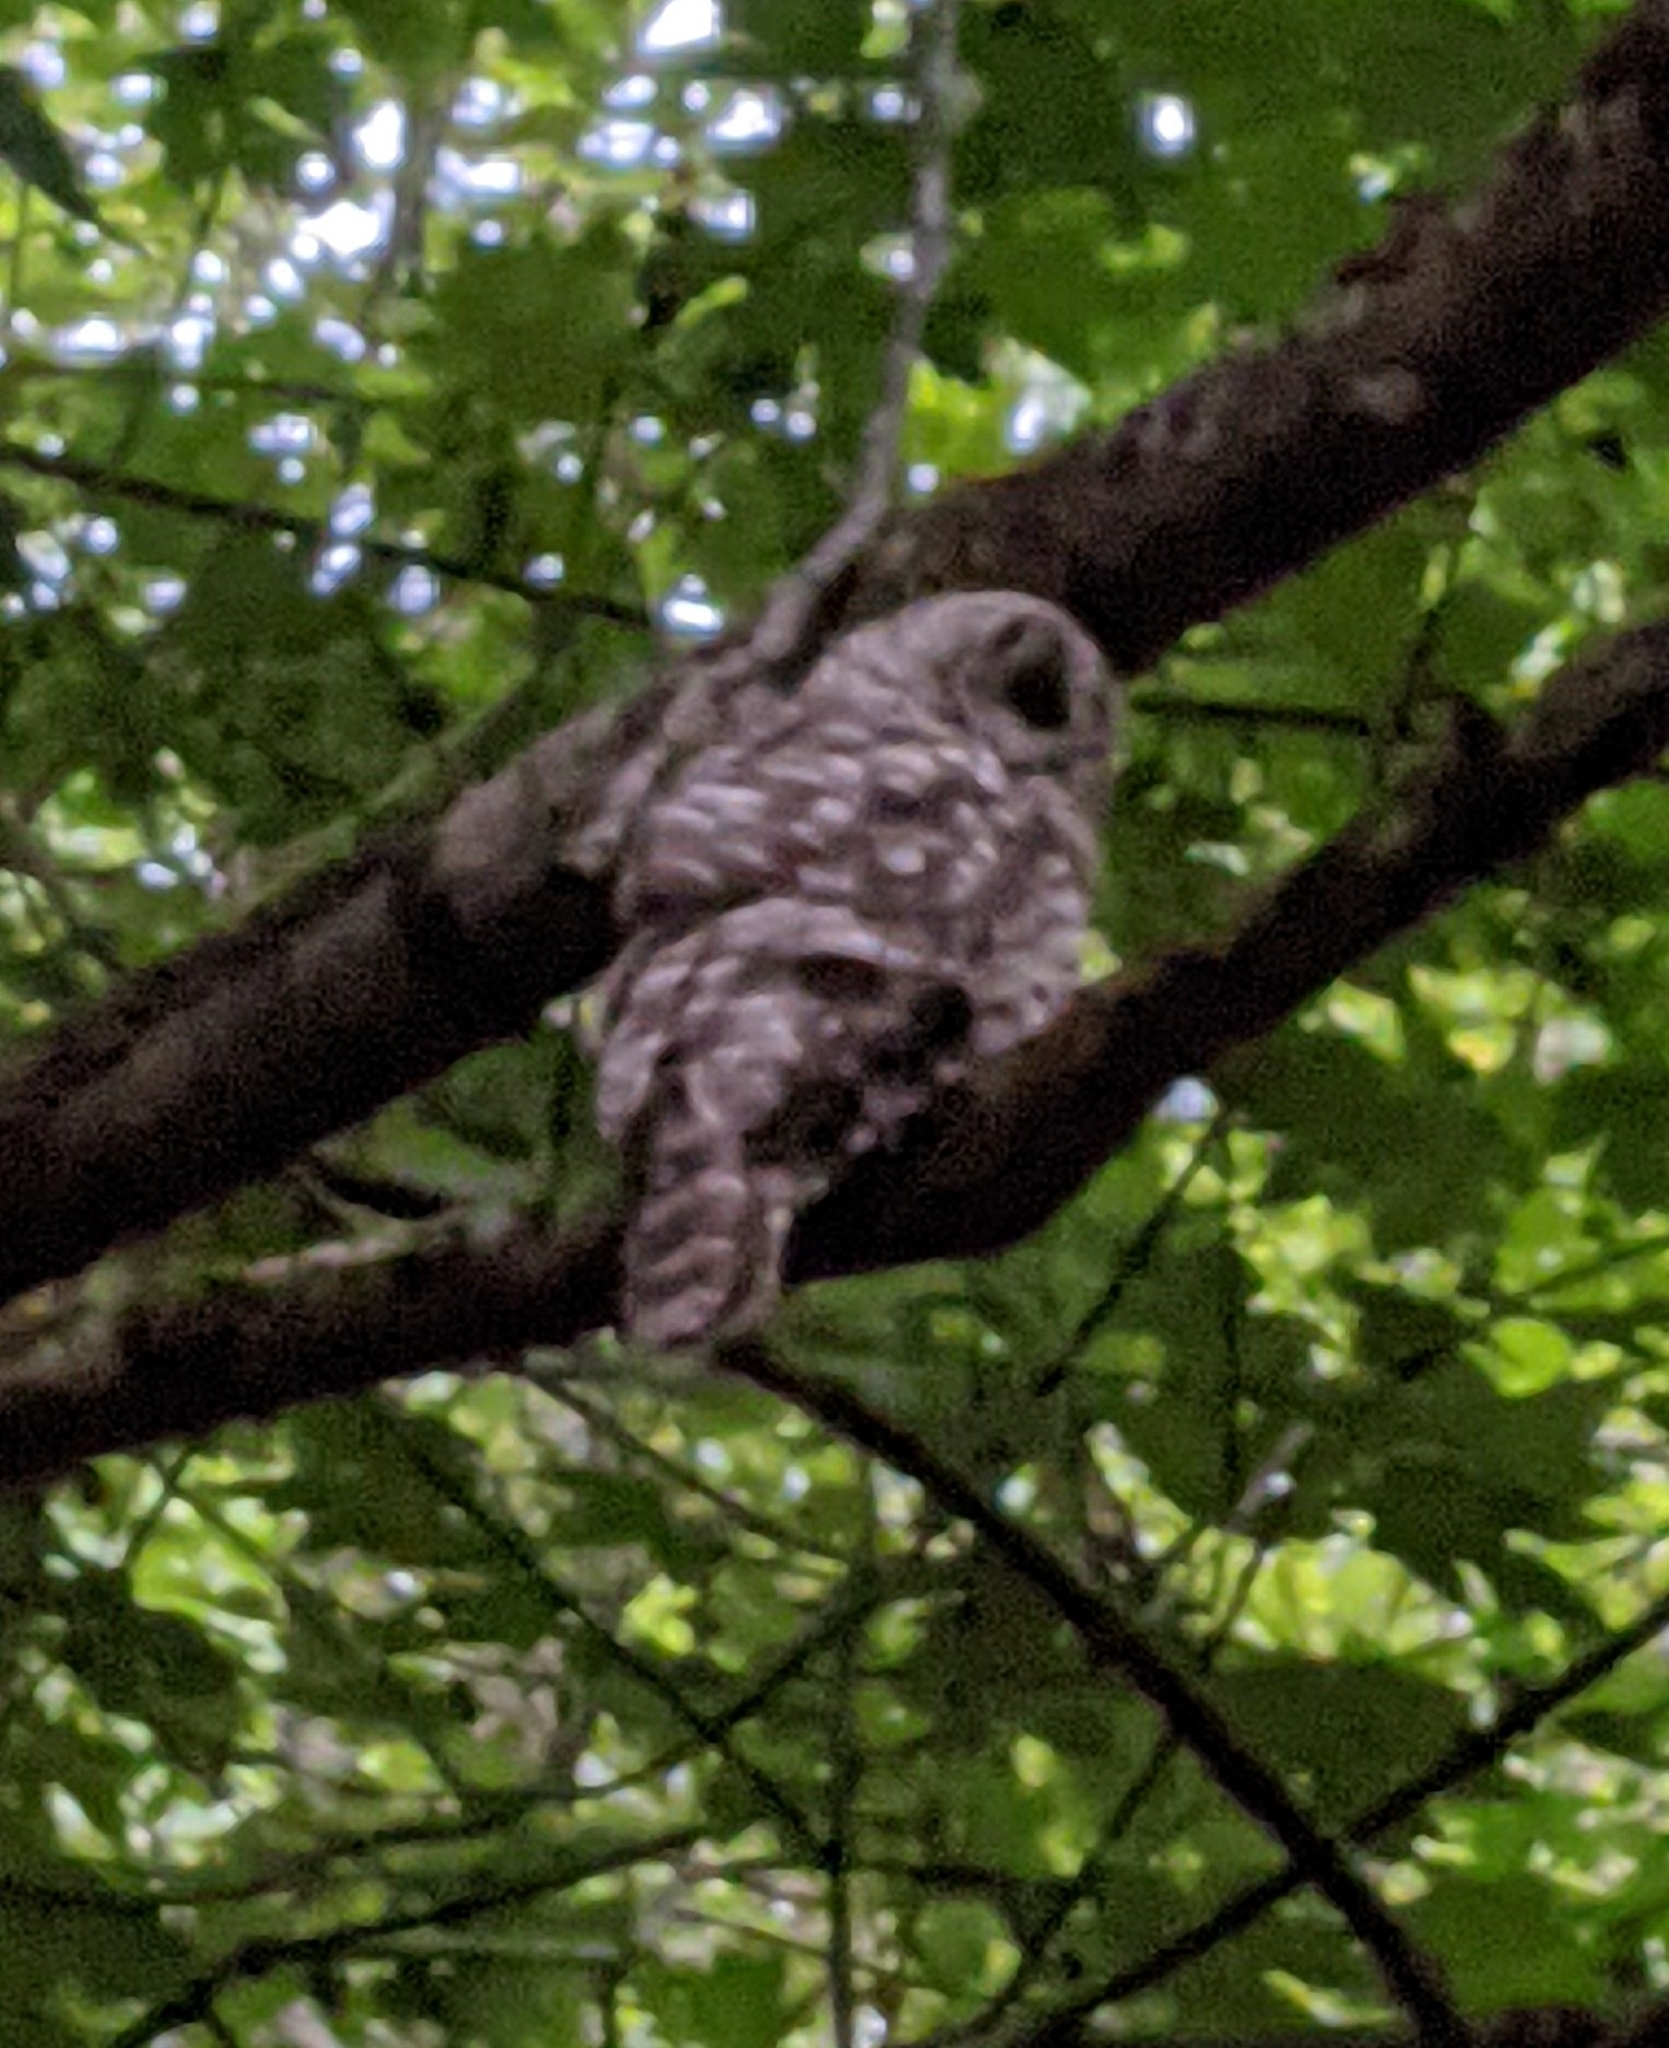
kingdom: Animalia
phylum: Chordata
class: Aves
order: Strigiformes
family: Strigidae
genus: Strix
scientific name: Strix varia
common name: Barred owl
